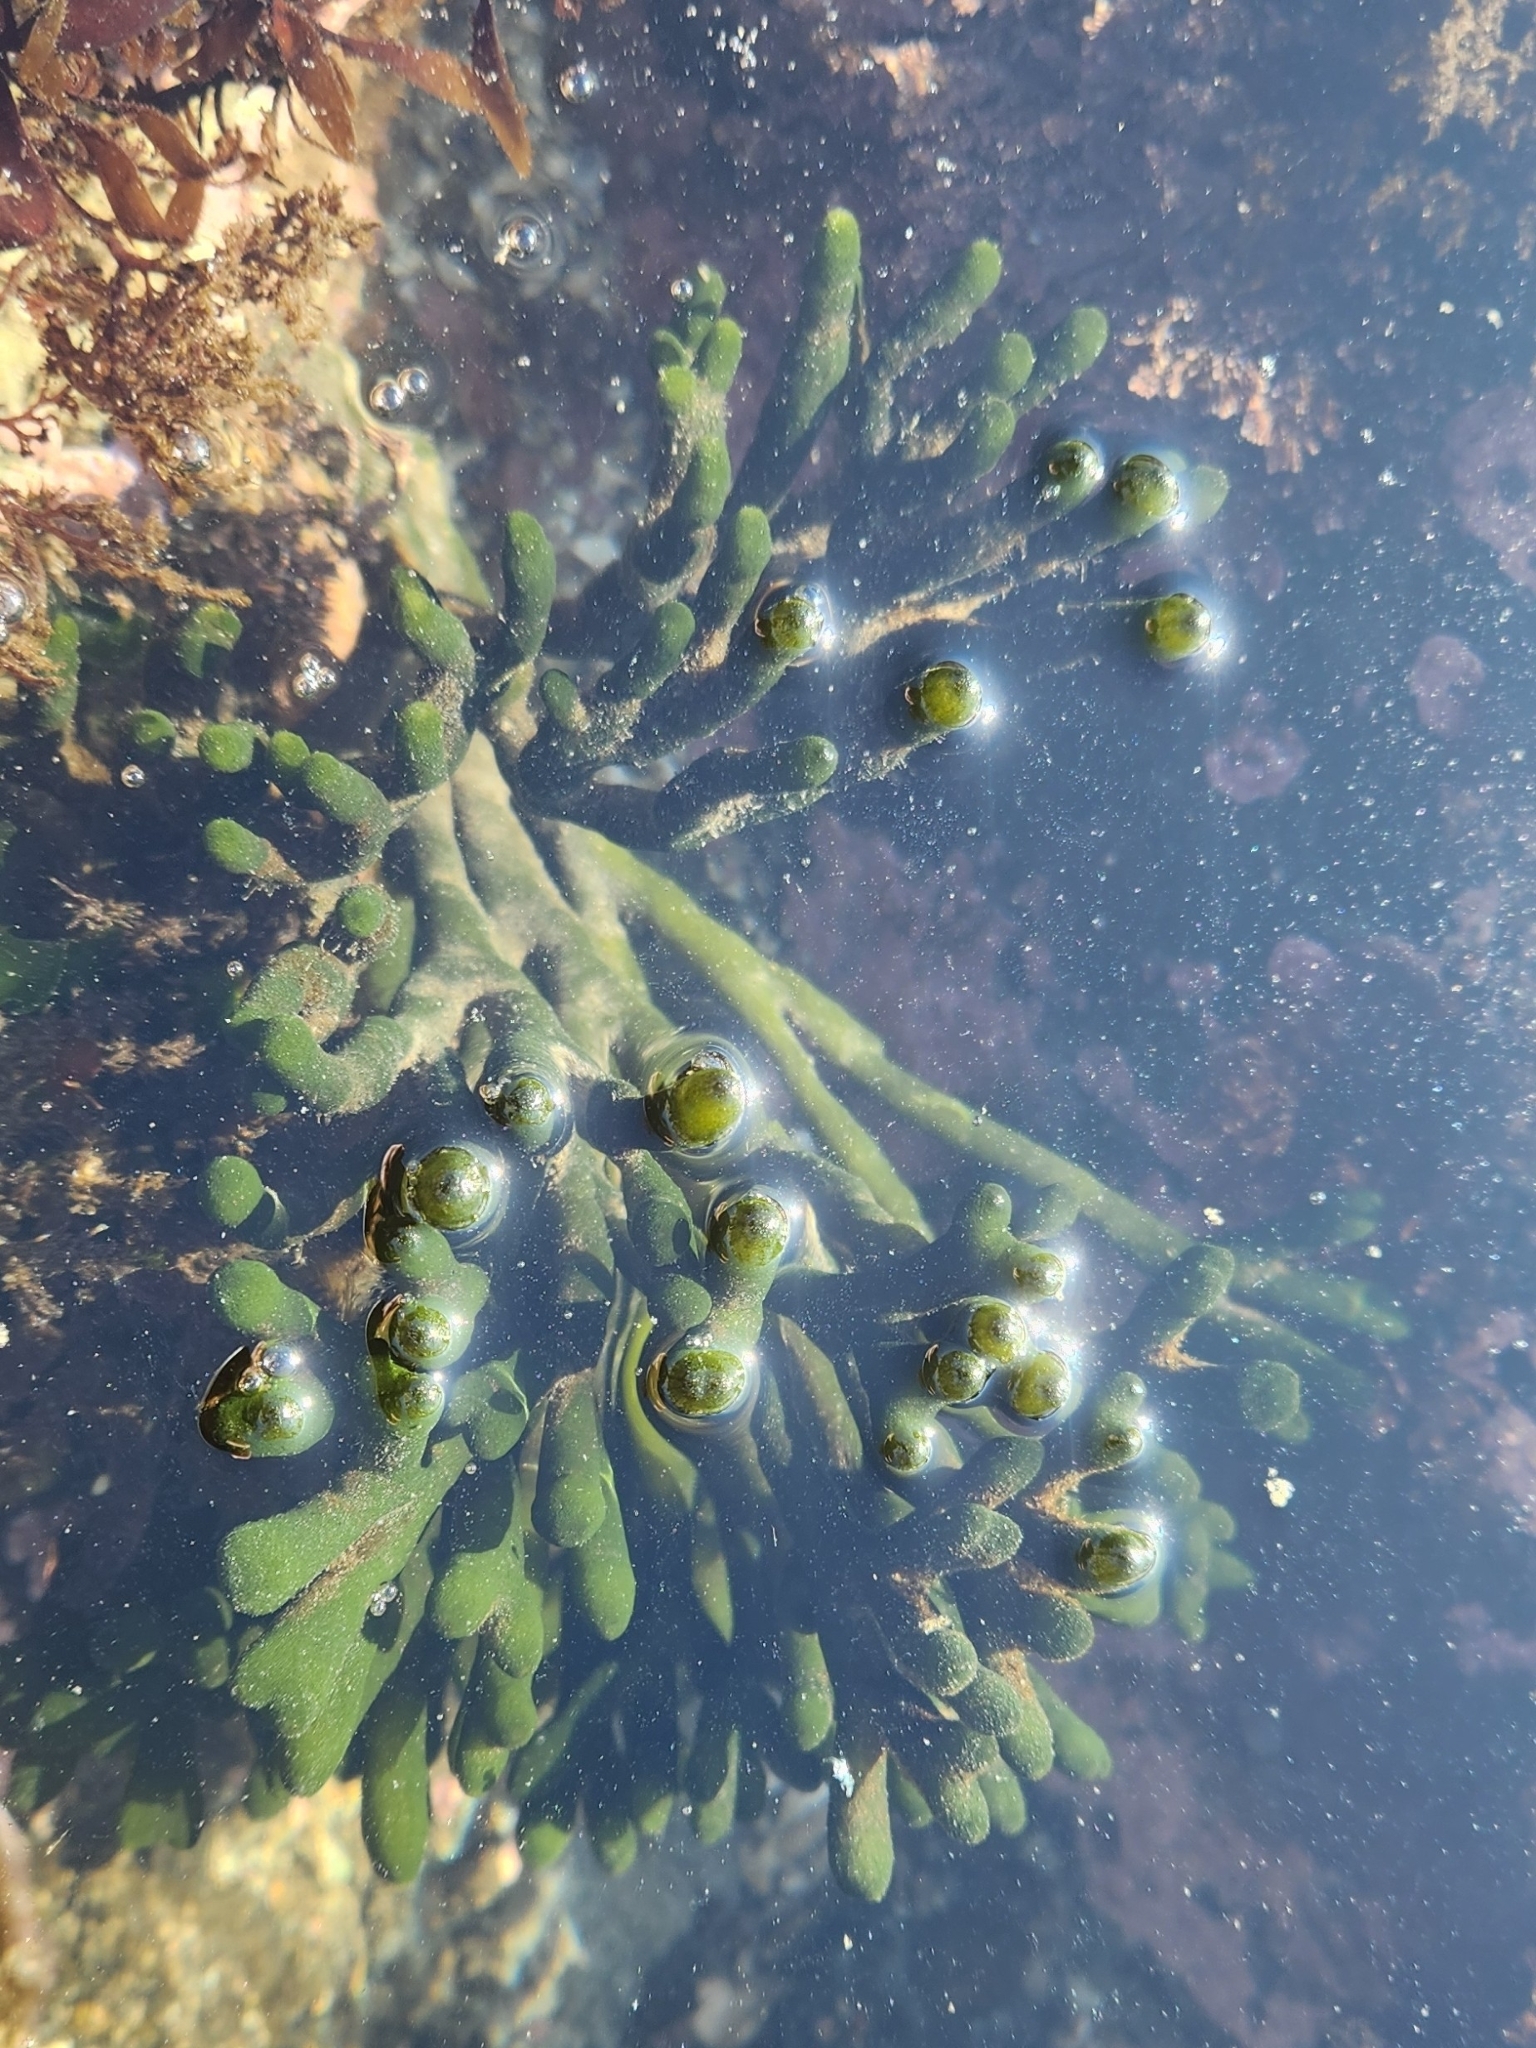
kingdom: Plantae
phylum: Chlorophyta
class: Ulvophyceae
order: Bryopsidales
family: Codiaceae
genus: Codium
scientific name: Codium fragile
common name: Dead man's fingers
